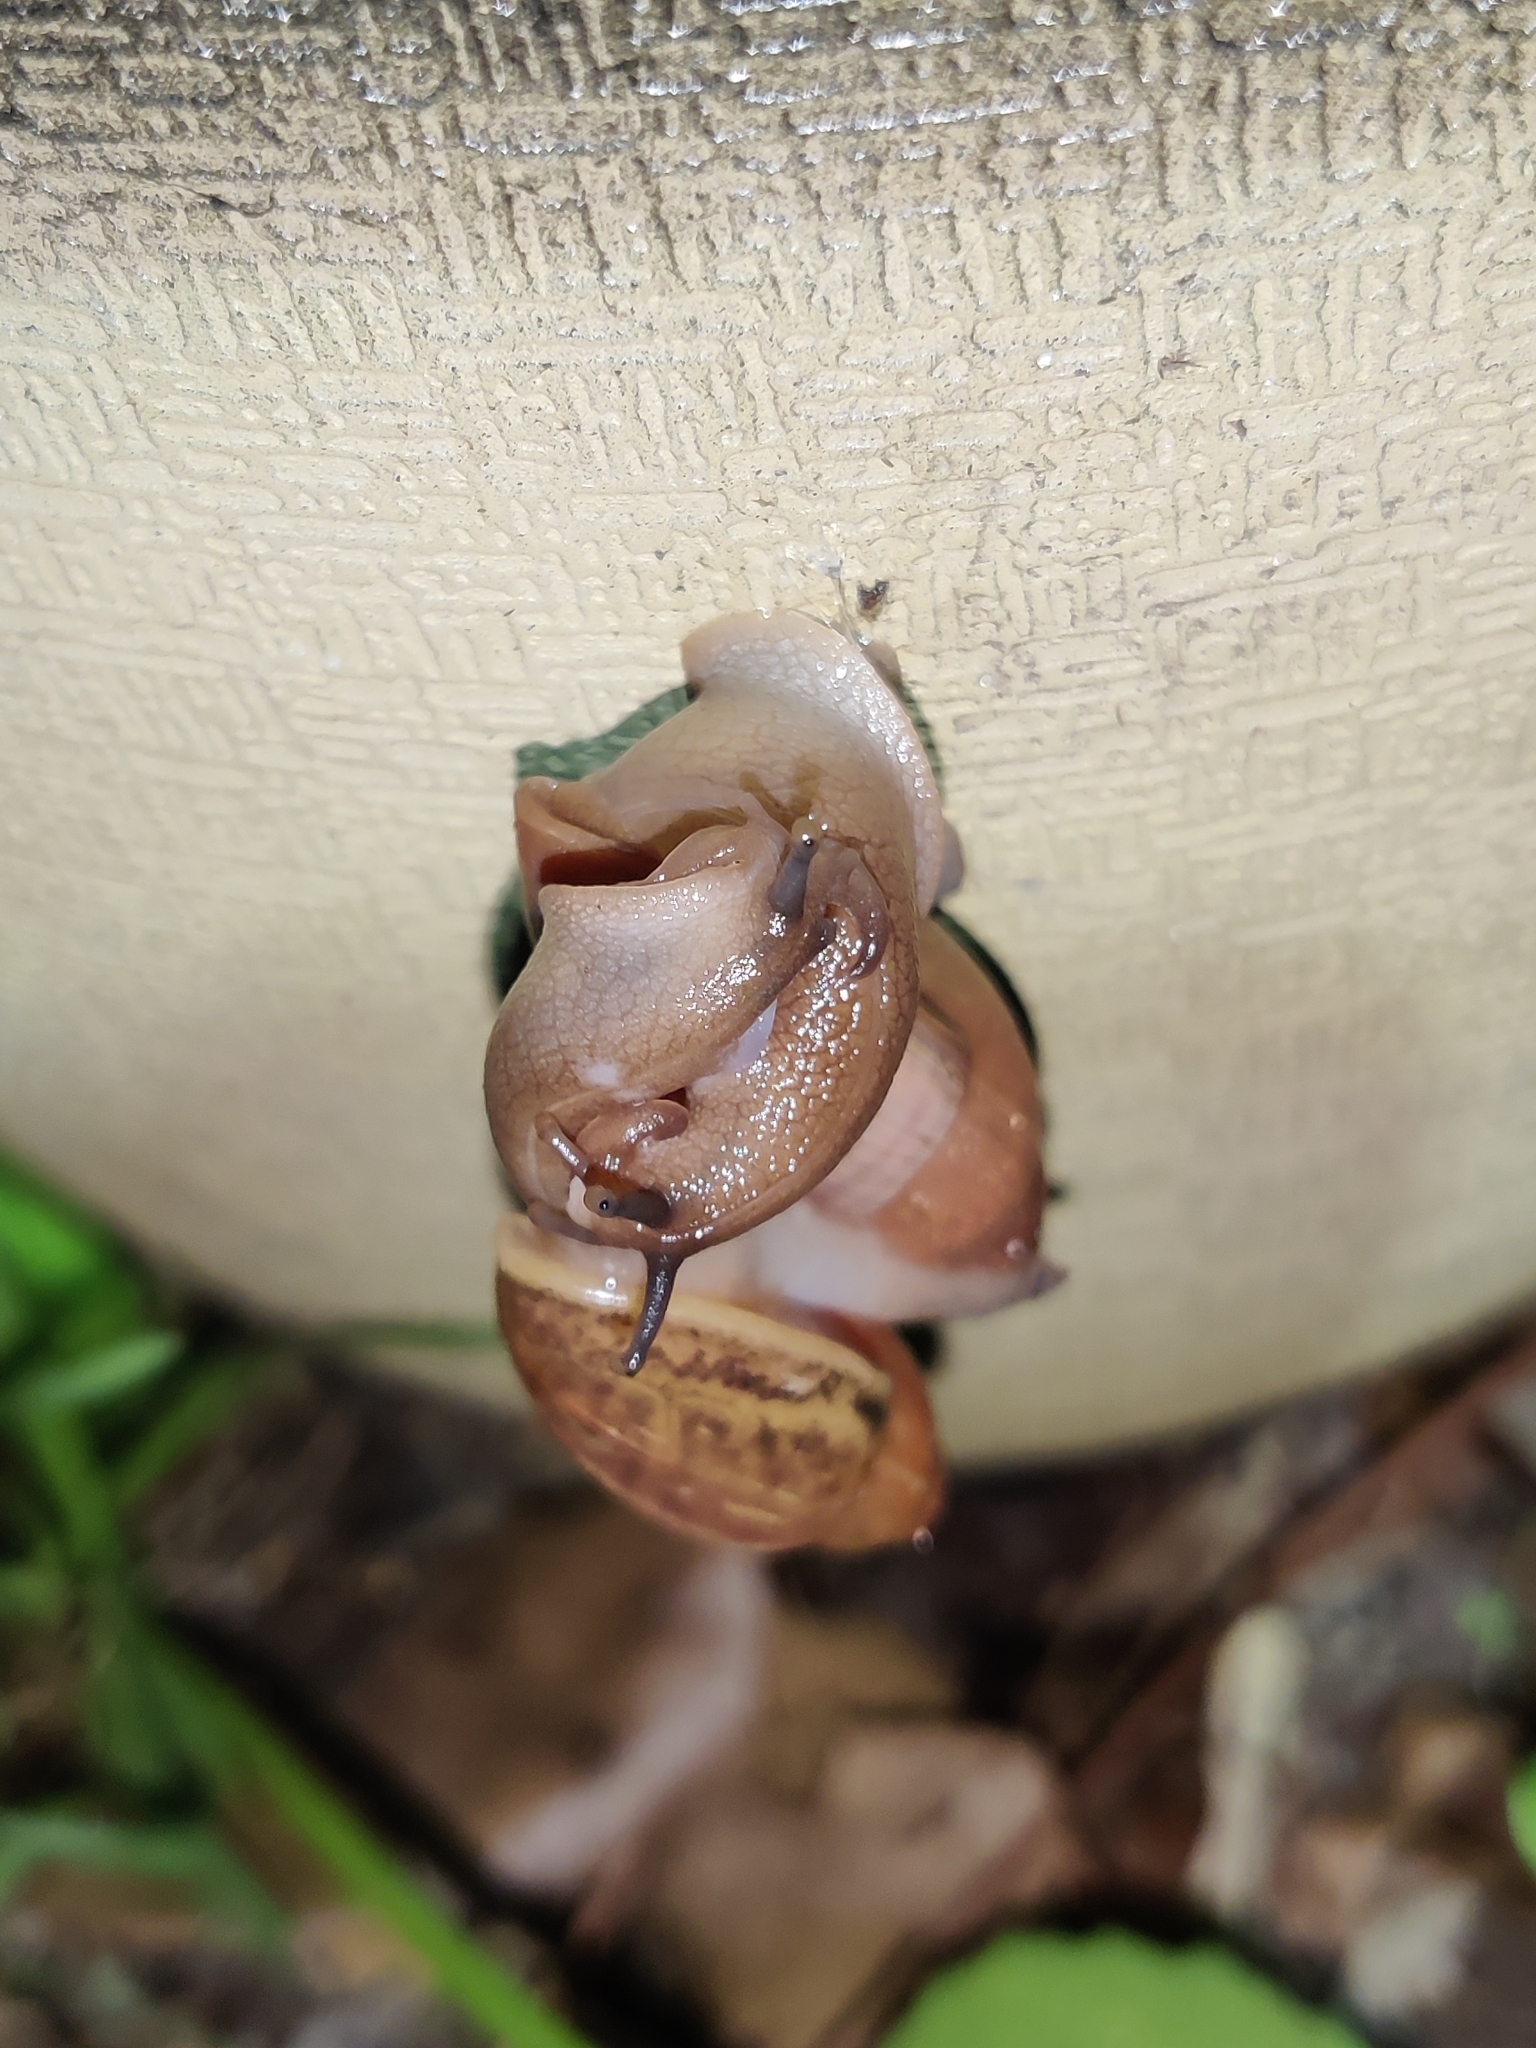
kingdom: Animalia
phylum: Mollusca
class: Gastropoda
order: Stylommatophora
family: Spiraxidae
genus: Euglandina
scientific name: Euglandina rosea
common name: Rosy wolfsnail
